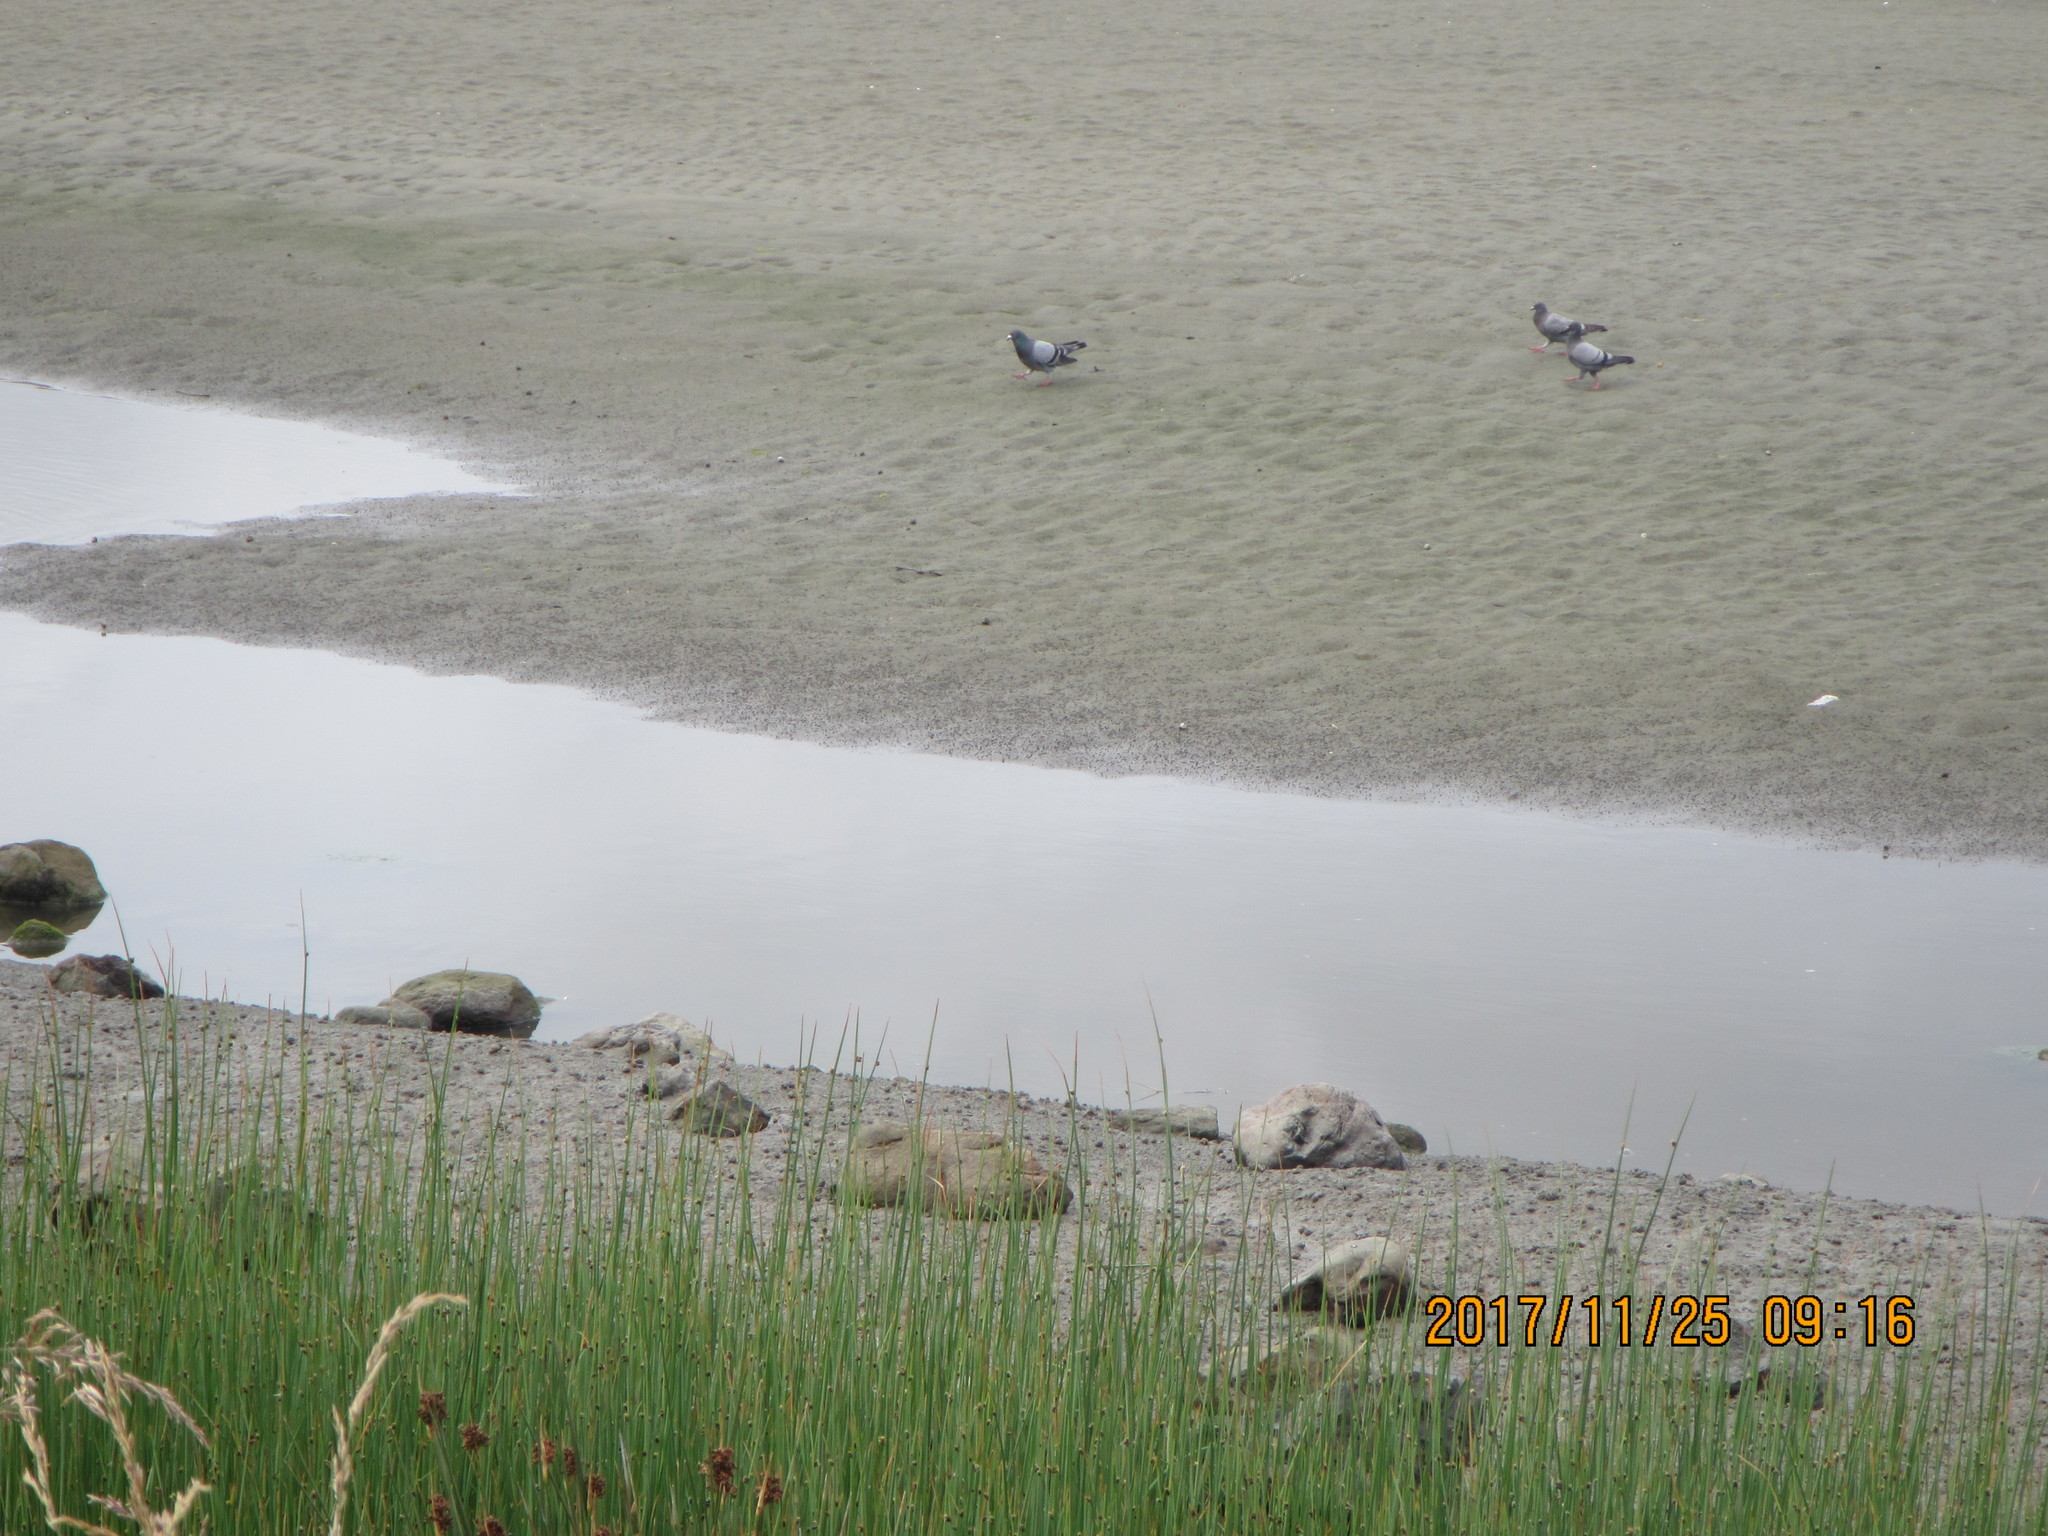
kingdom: Animalia
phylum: Chordata
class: Aves
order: Columbiformes
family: Columbidae
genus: Columba
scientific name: Columba livia
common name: Rock pigeon
